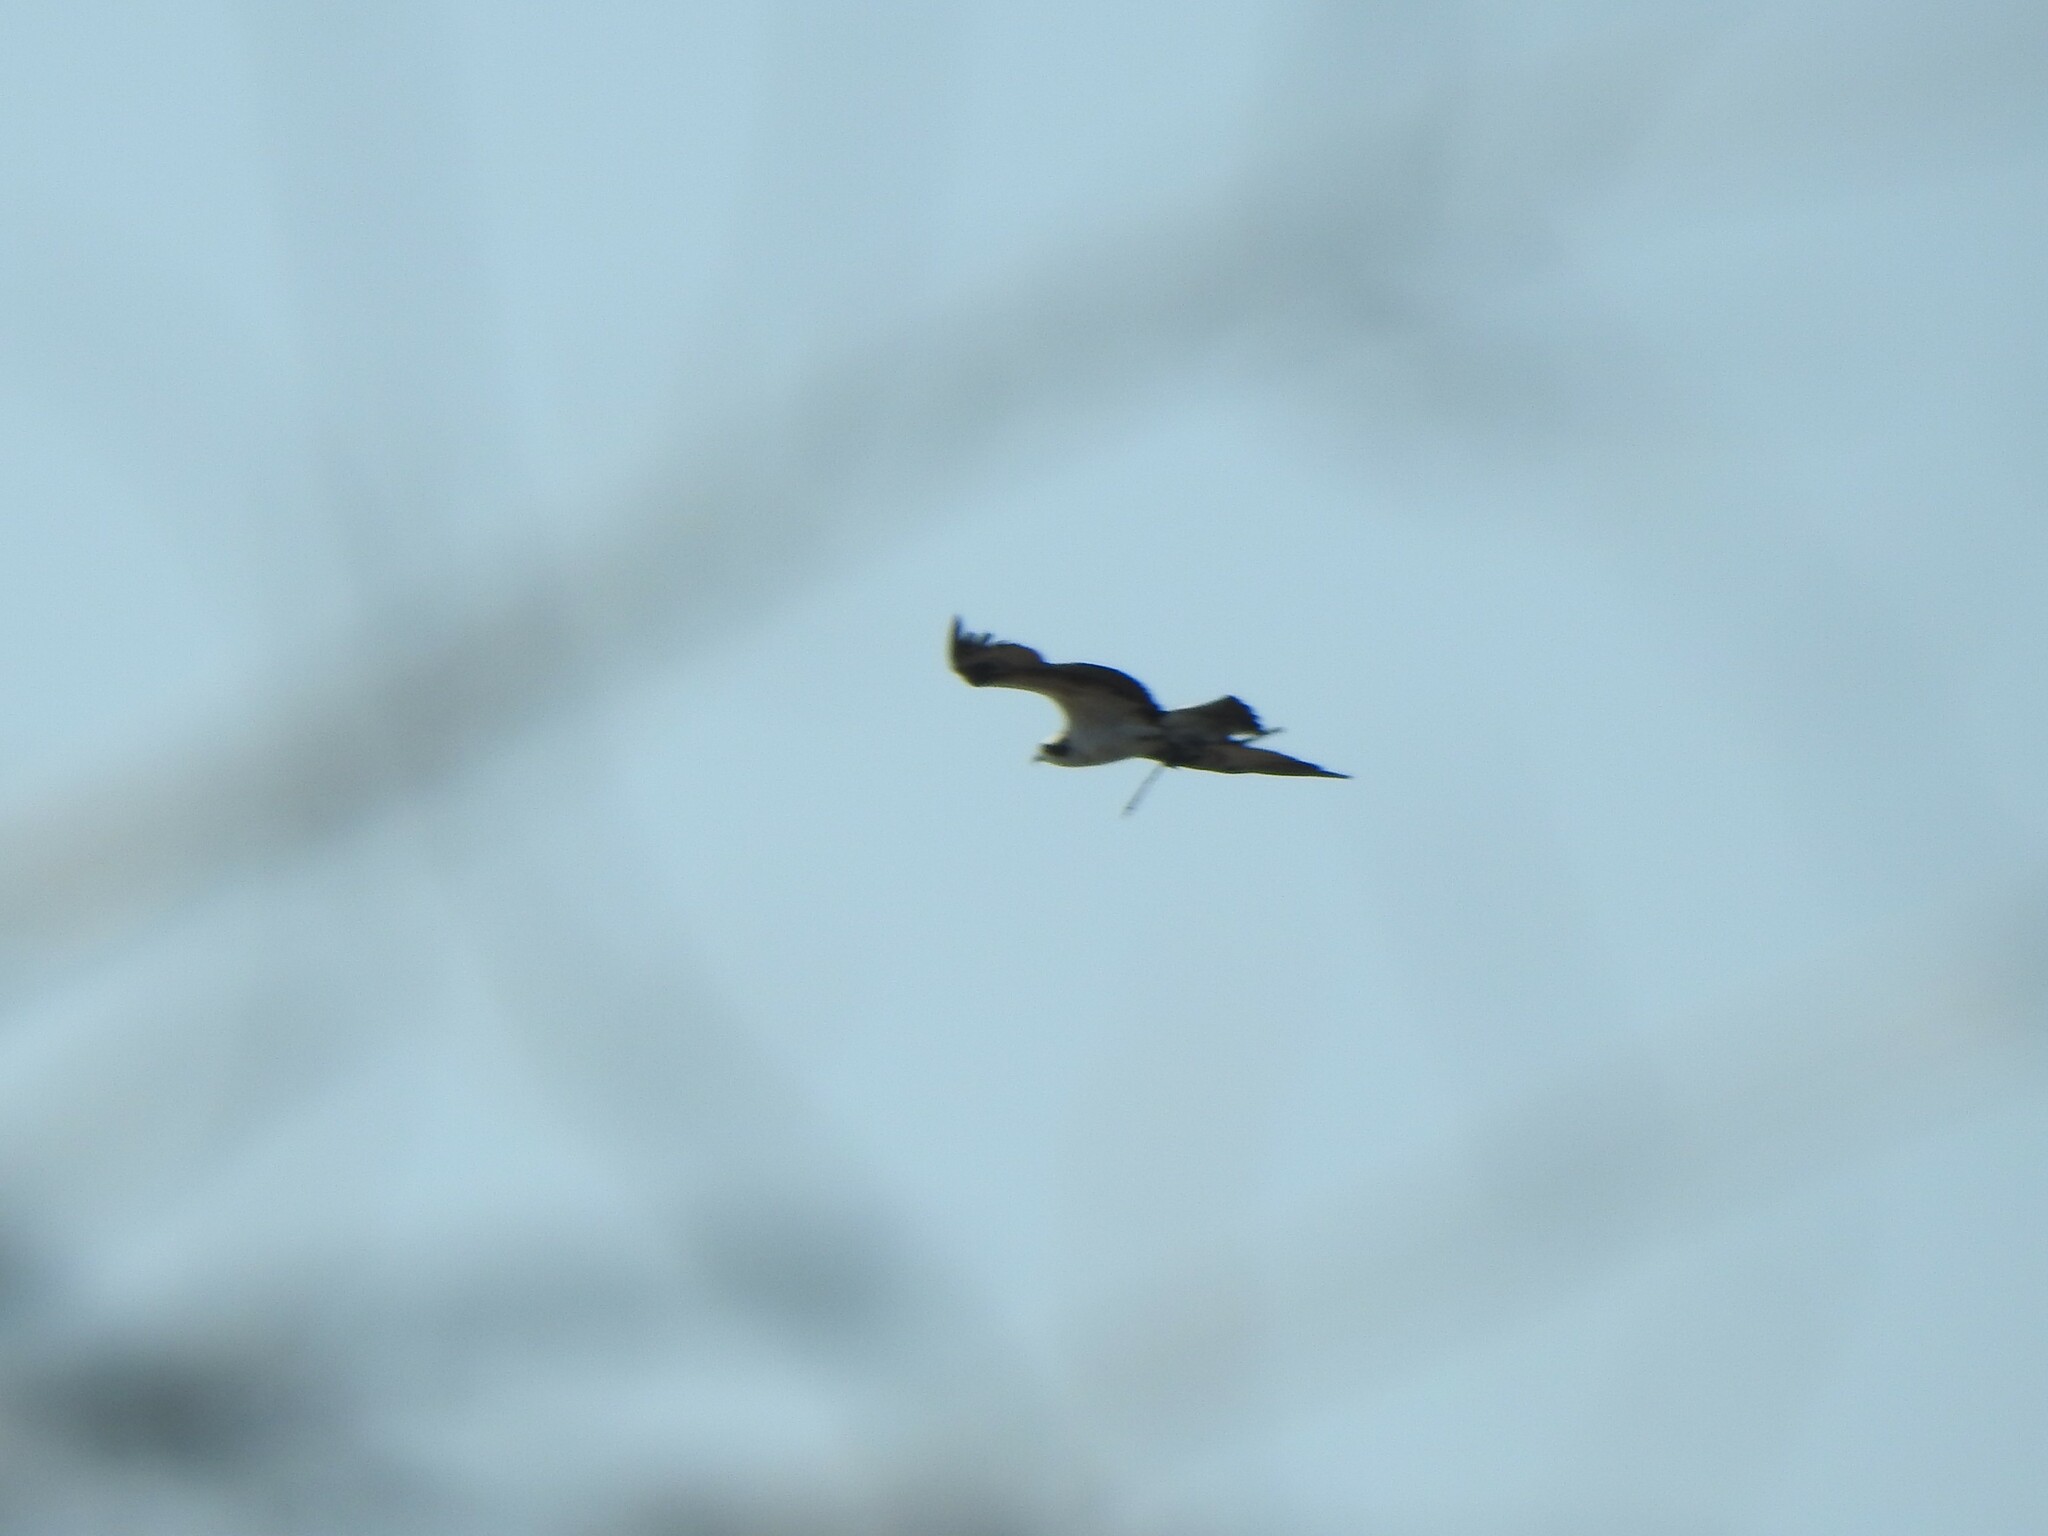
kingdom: Animalia
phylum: Chordata
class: Aves
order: Accipitriformes
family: Pandionidae
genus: Pandion
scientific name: Pandion haliaetus
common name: Osprey
